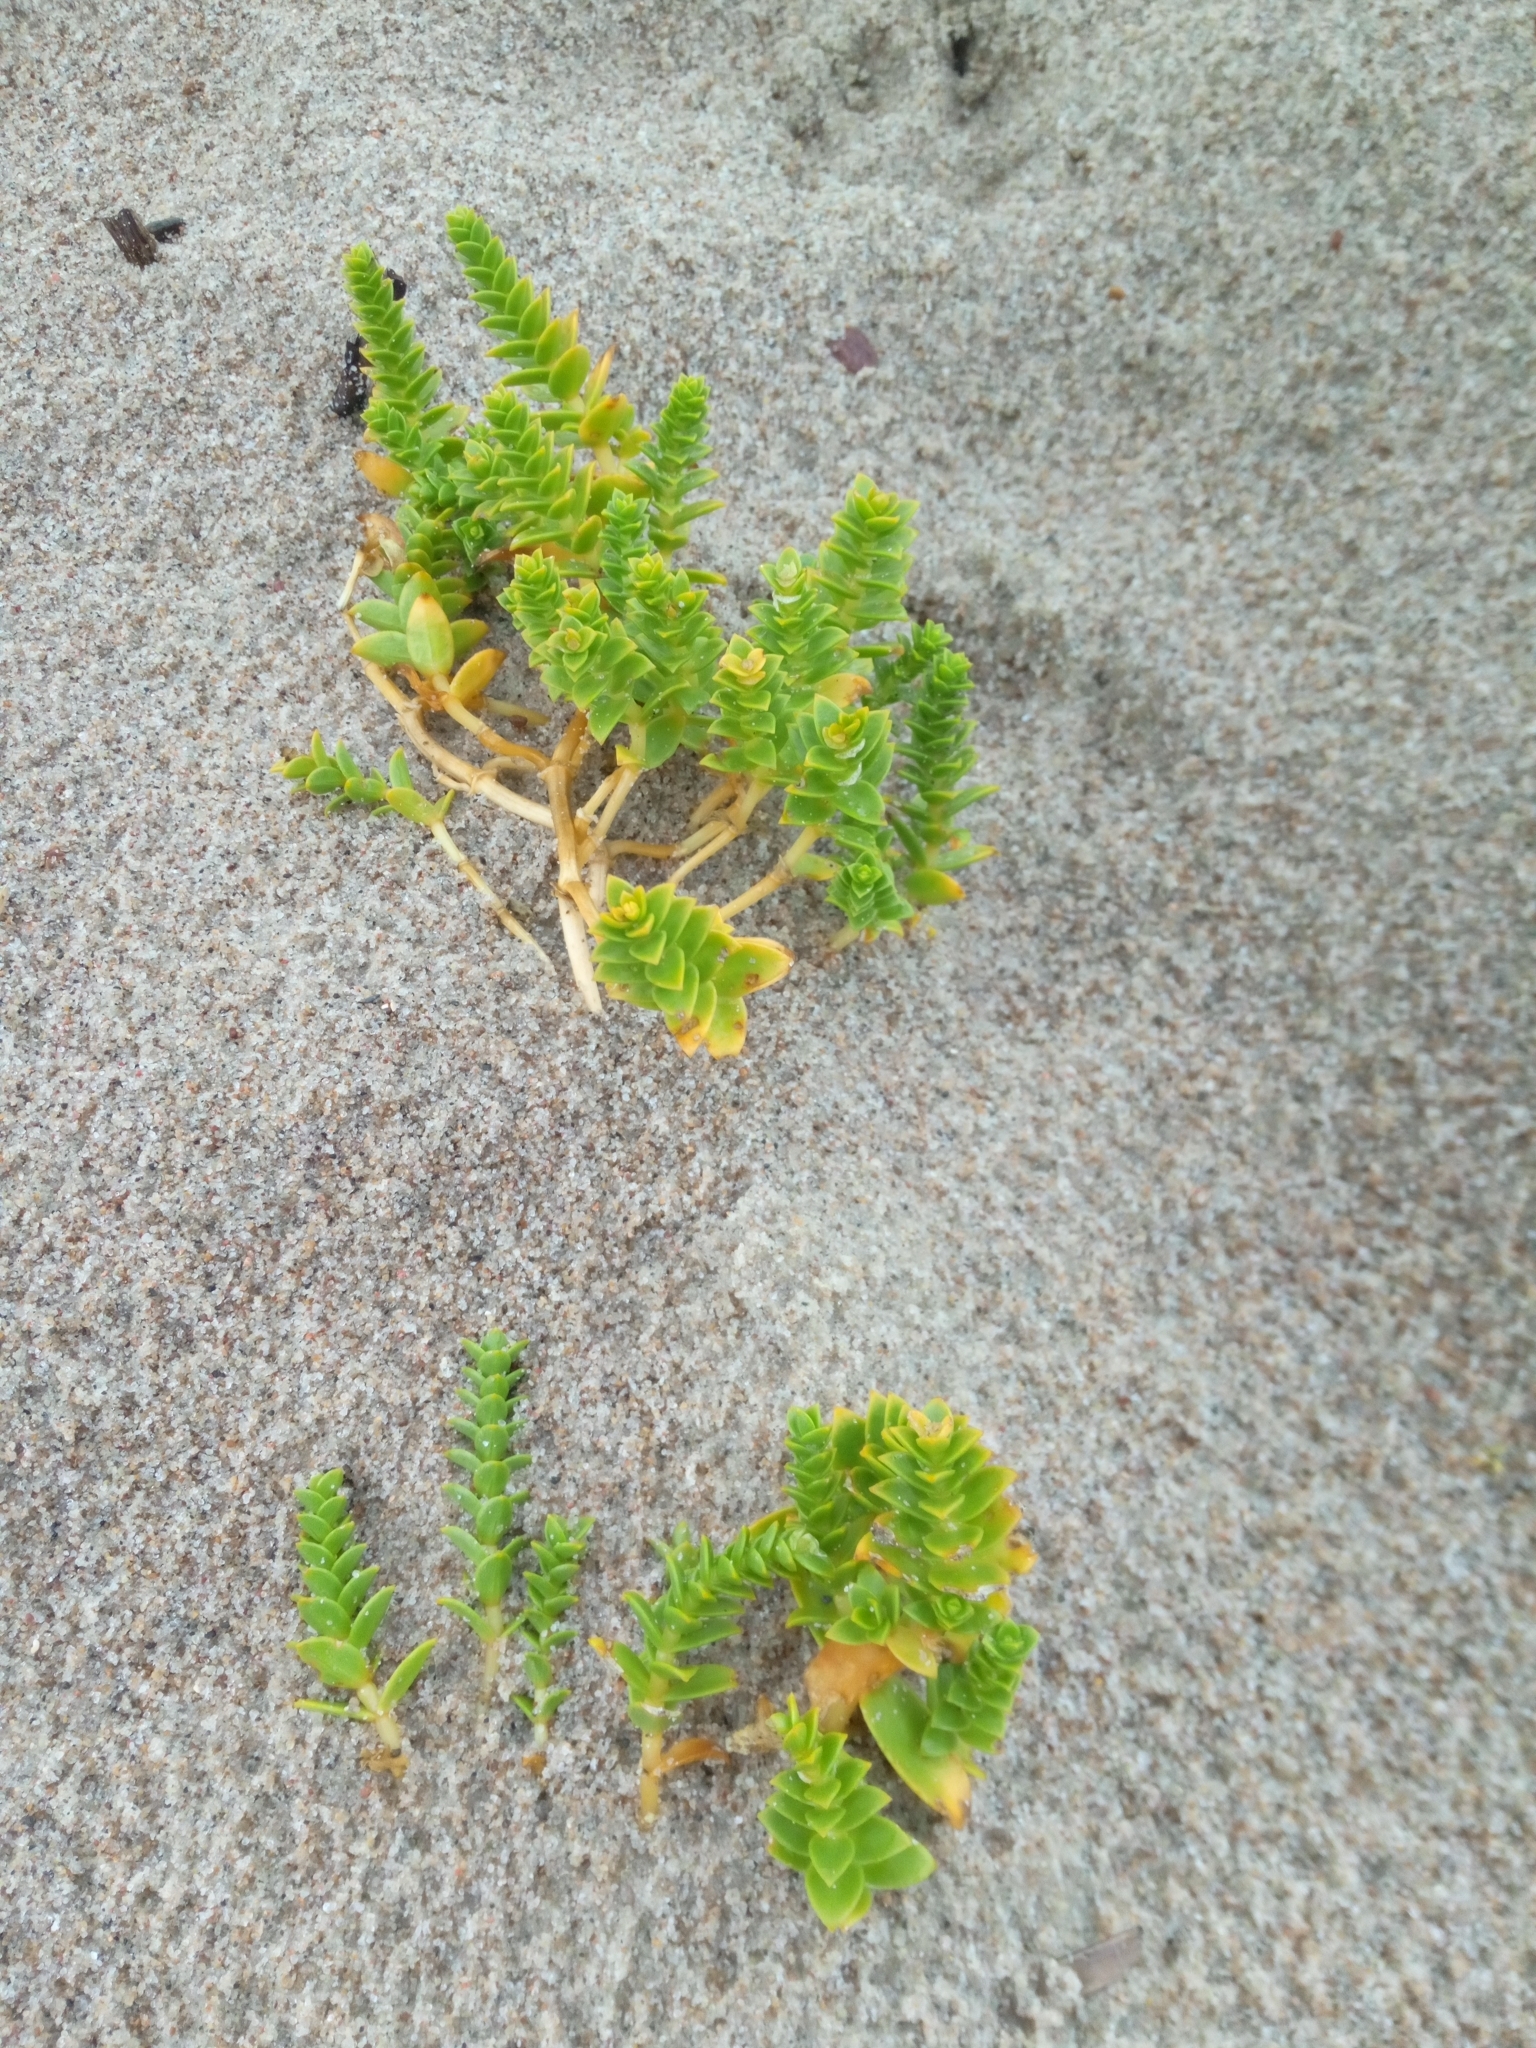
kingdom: Plantae
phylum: Tracheophyta
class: Magnoliopsida
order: Caryophyllales
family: Caryophyllaceae
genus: Honckenya
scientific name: Honckenya peploides
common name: Sea sandwort
